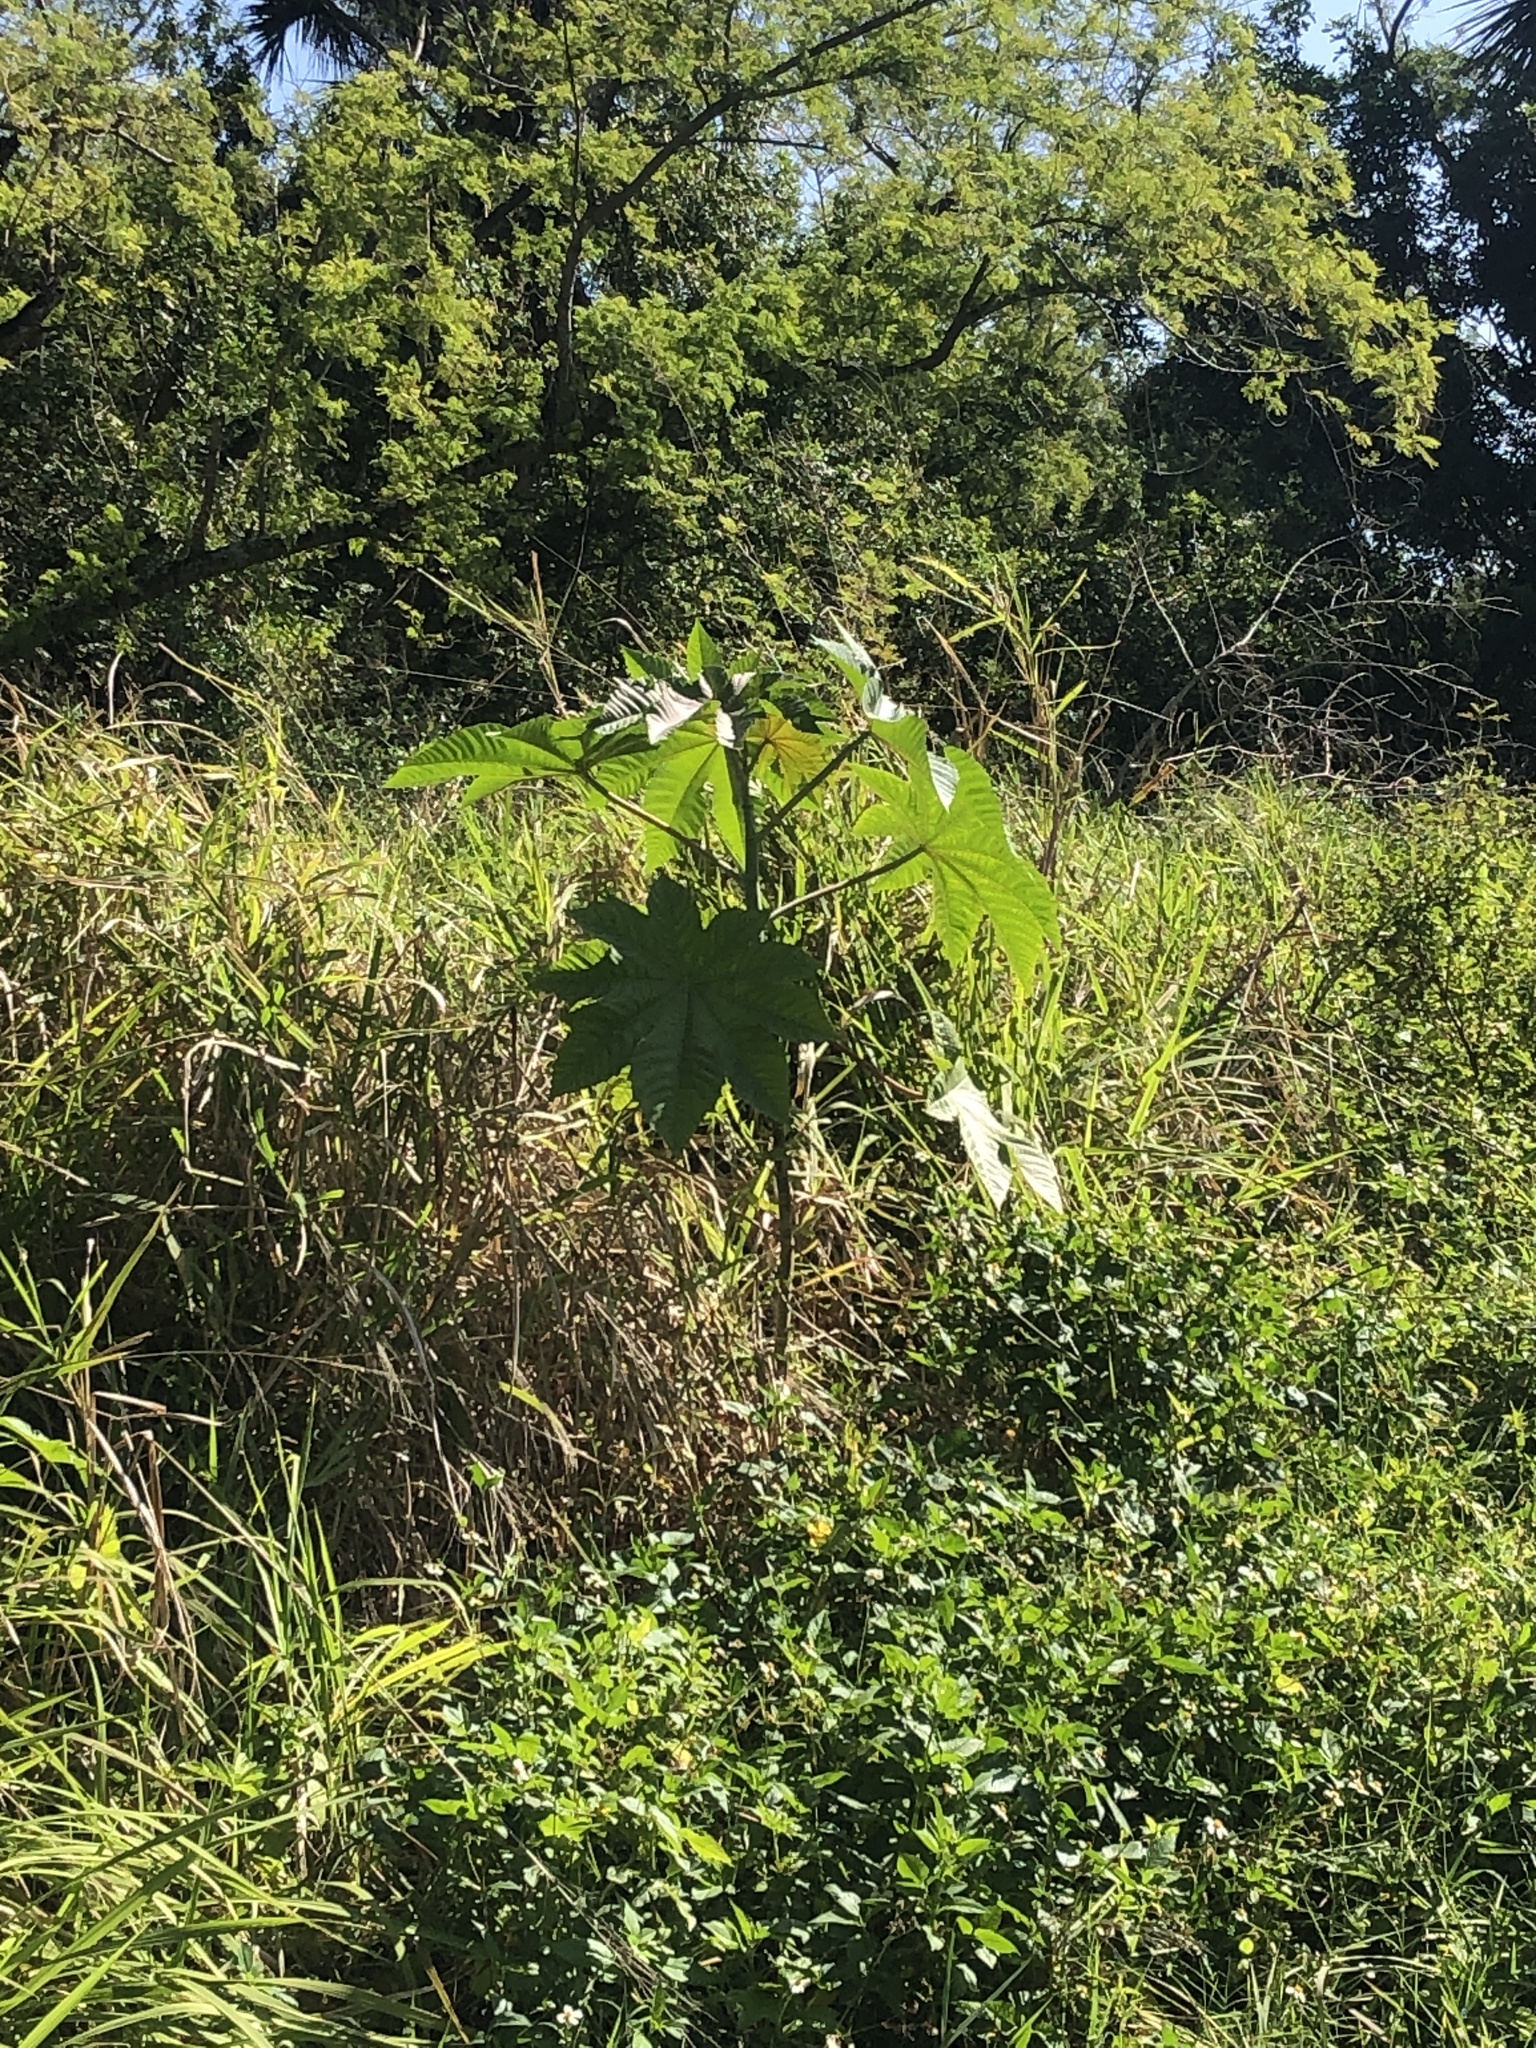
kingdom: Plantae
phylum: Tracheophyta
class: Magnoliopsida
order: Malpighiales
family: Euphorbiaceae
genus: Ricinus
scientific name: Ricinus communis
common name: Castor-oil-plant
